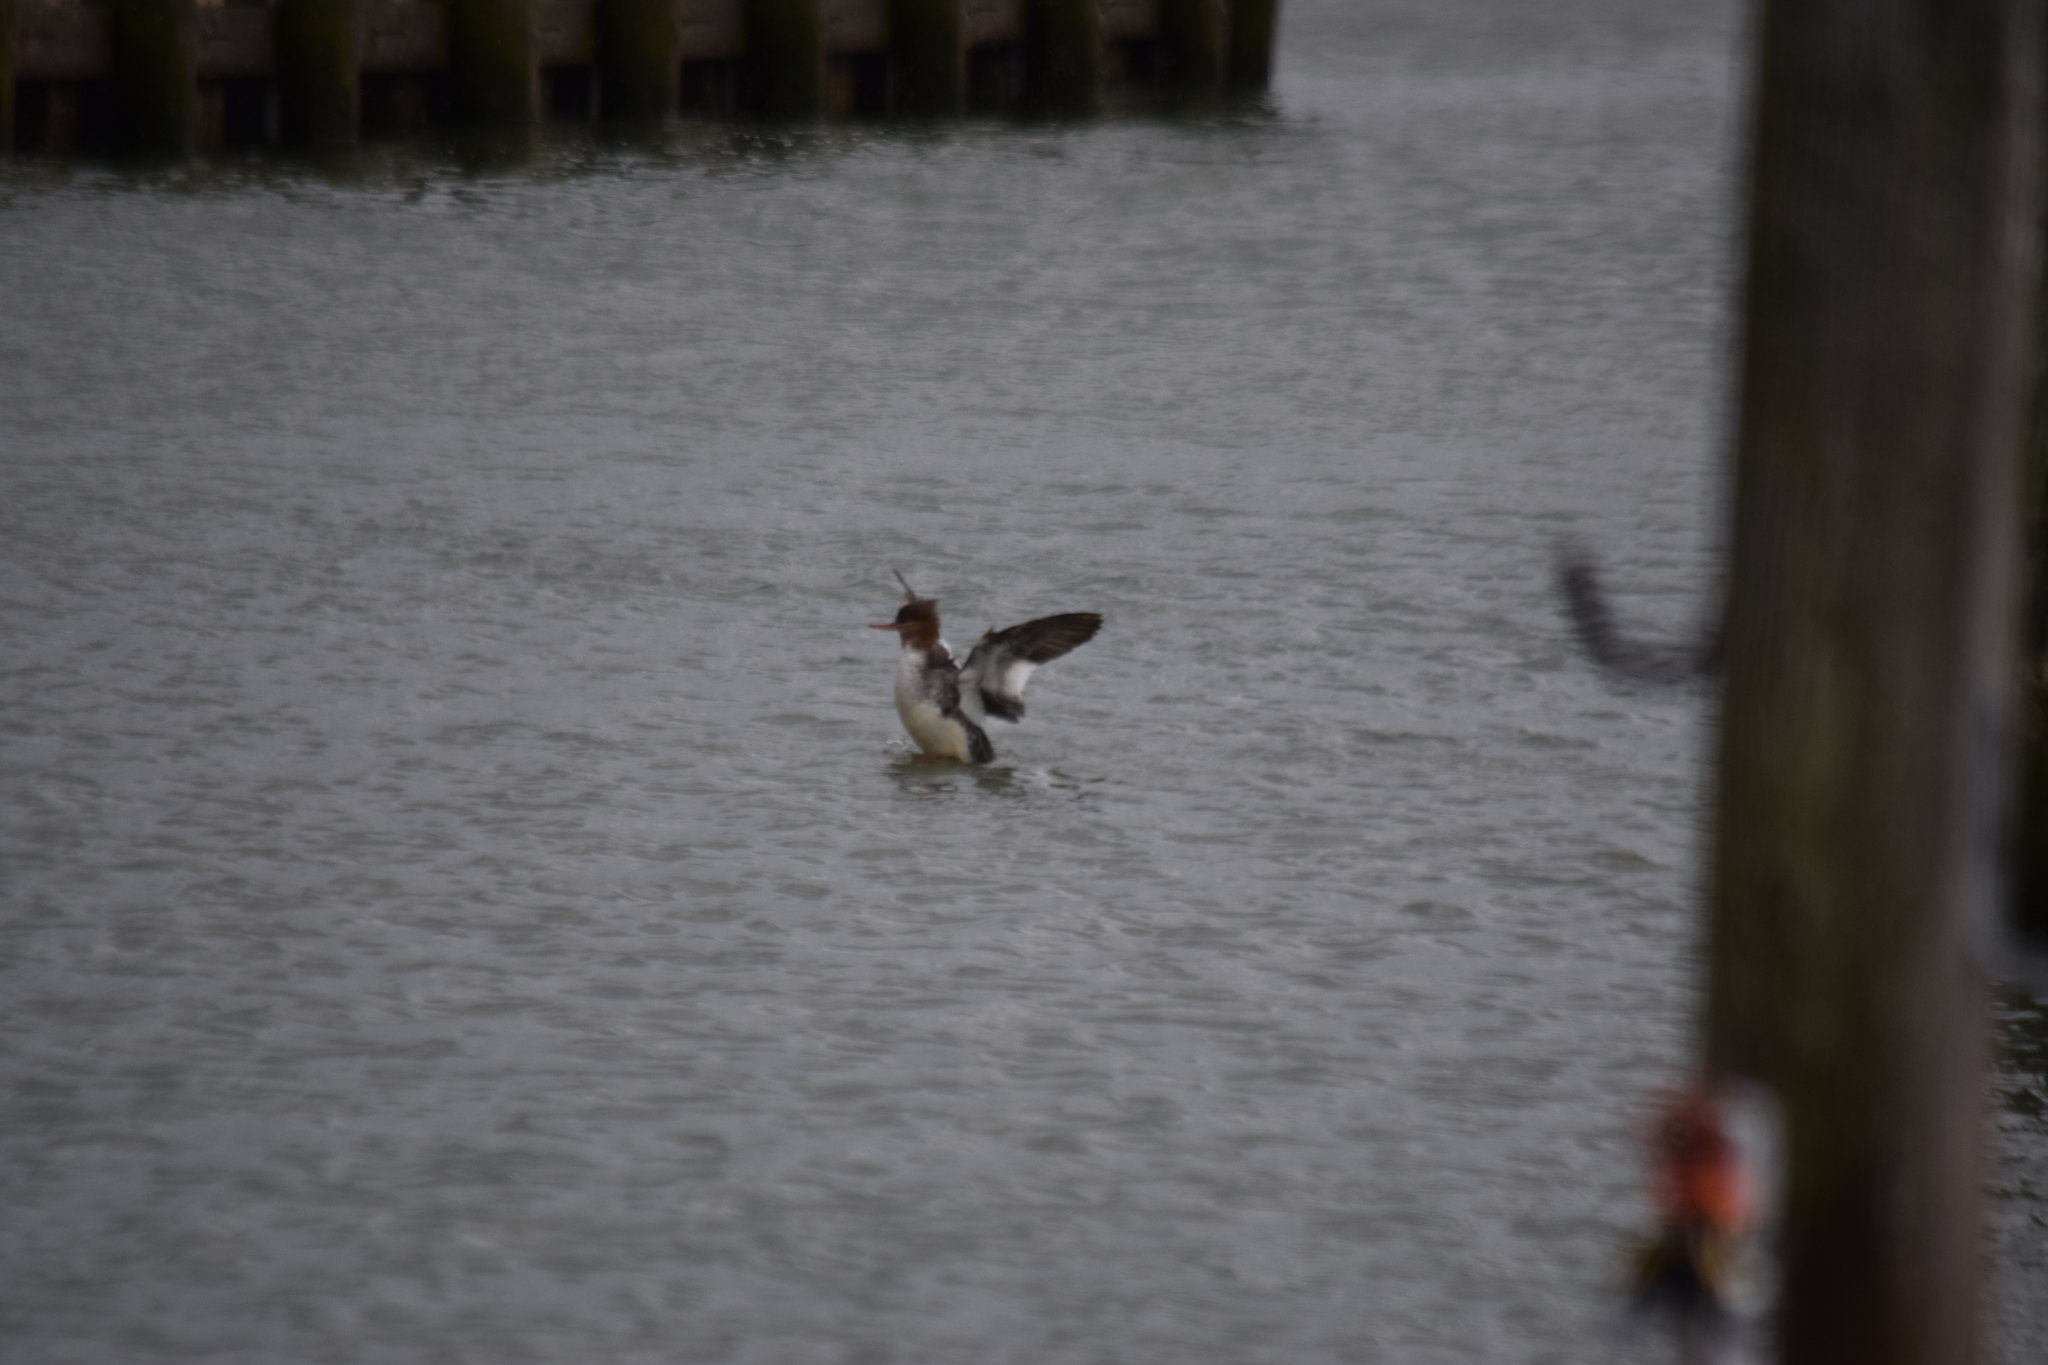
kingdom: Animalia
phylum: Chordata
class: Aves
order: Anseriformes
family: Anatidae
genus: Mergus
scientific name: Mergus merganser
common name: Common merganser
